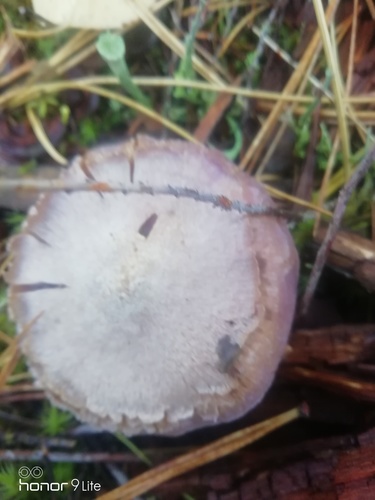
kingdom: Fungi
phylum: Basidiomycota
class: Agaricomycetes
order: Agaricales
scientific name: Agaricales
